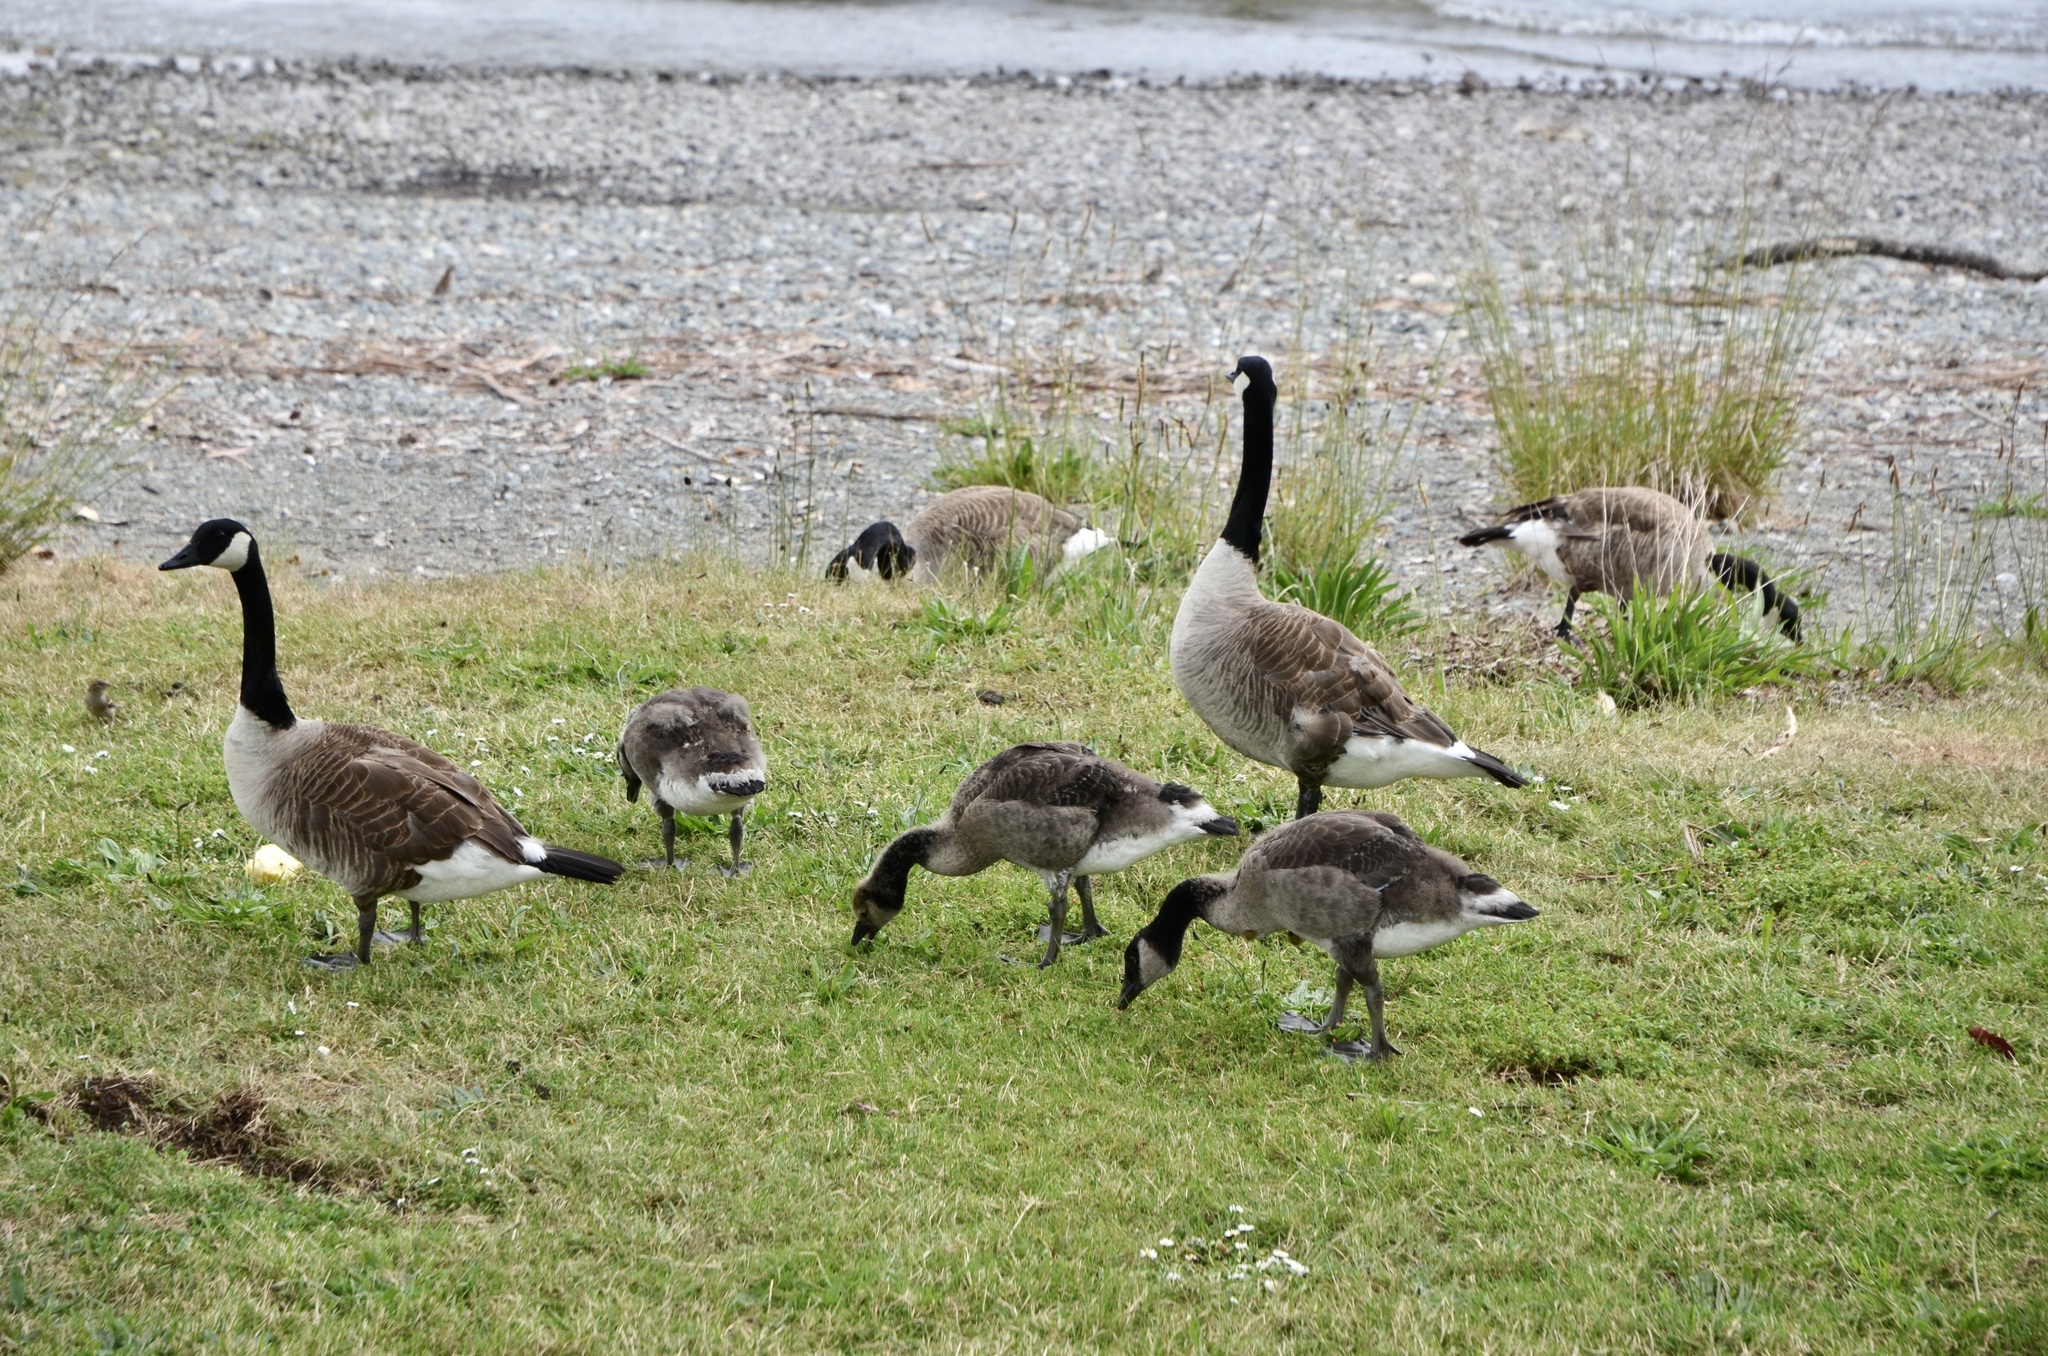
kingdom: Animalia
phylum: Chordata
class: Aves
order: Anseriformes
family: Anatidae
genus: Branta
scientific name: Branta canadensis
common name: Canada goose
